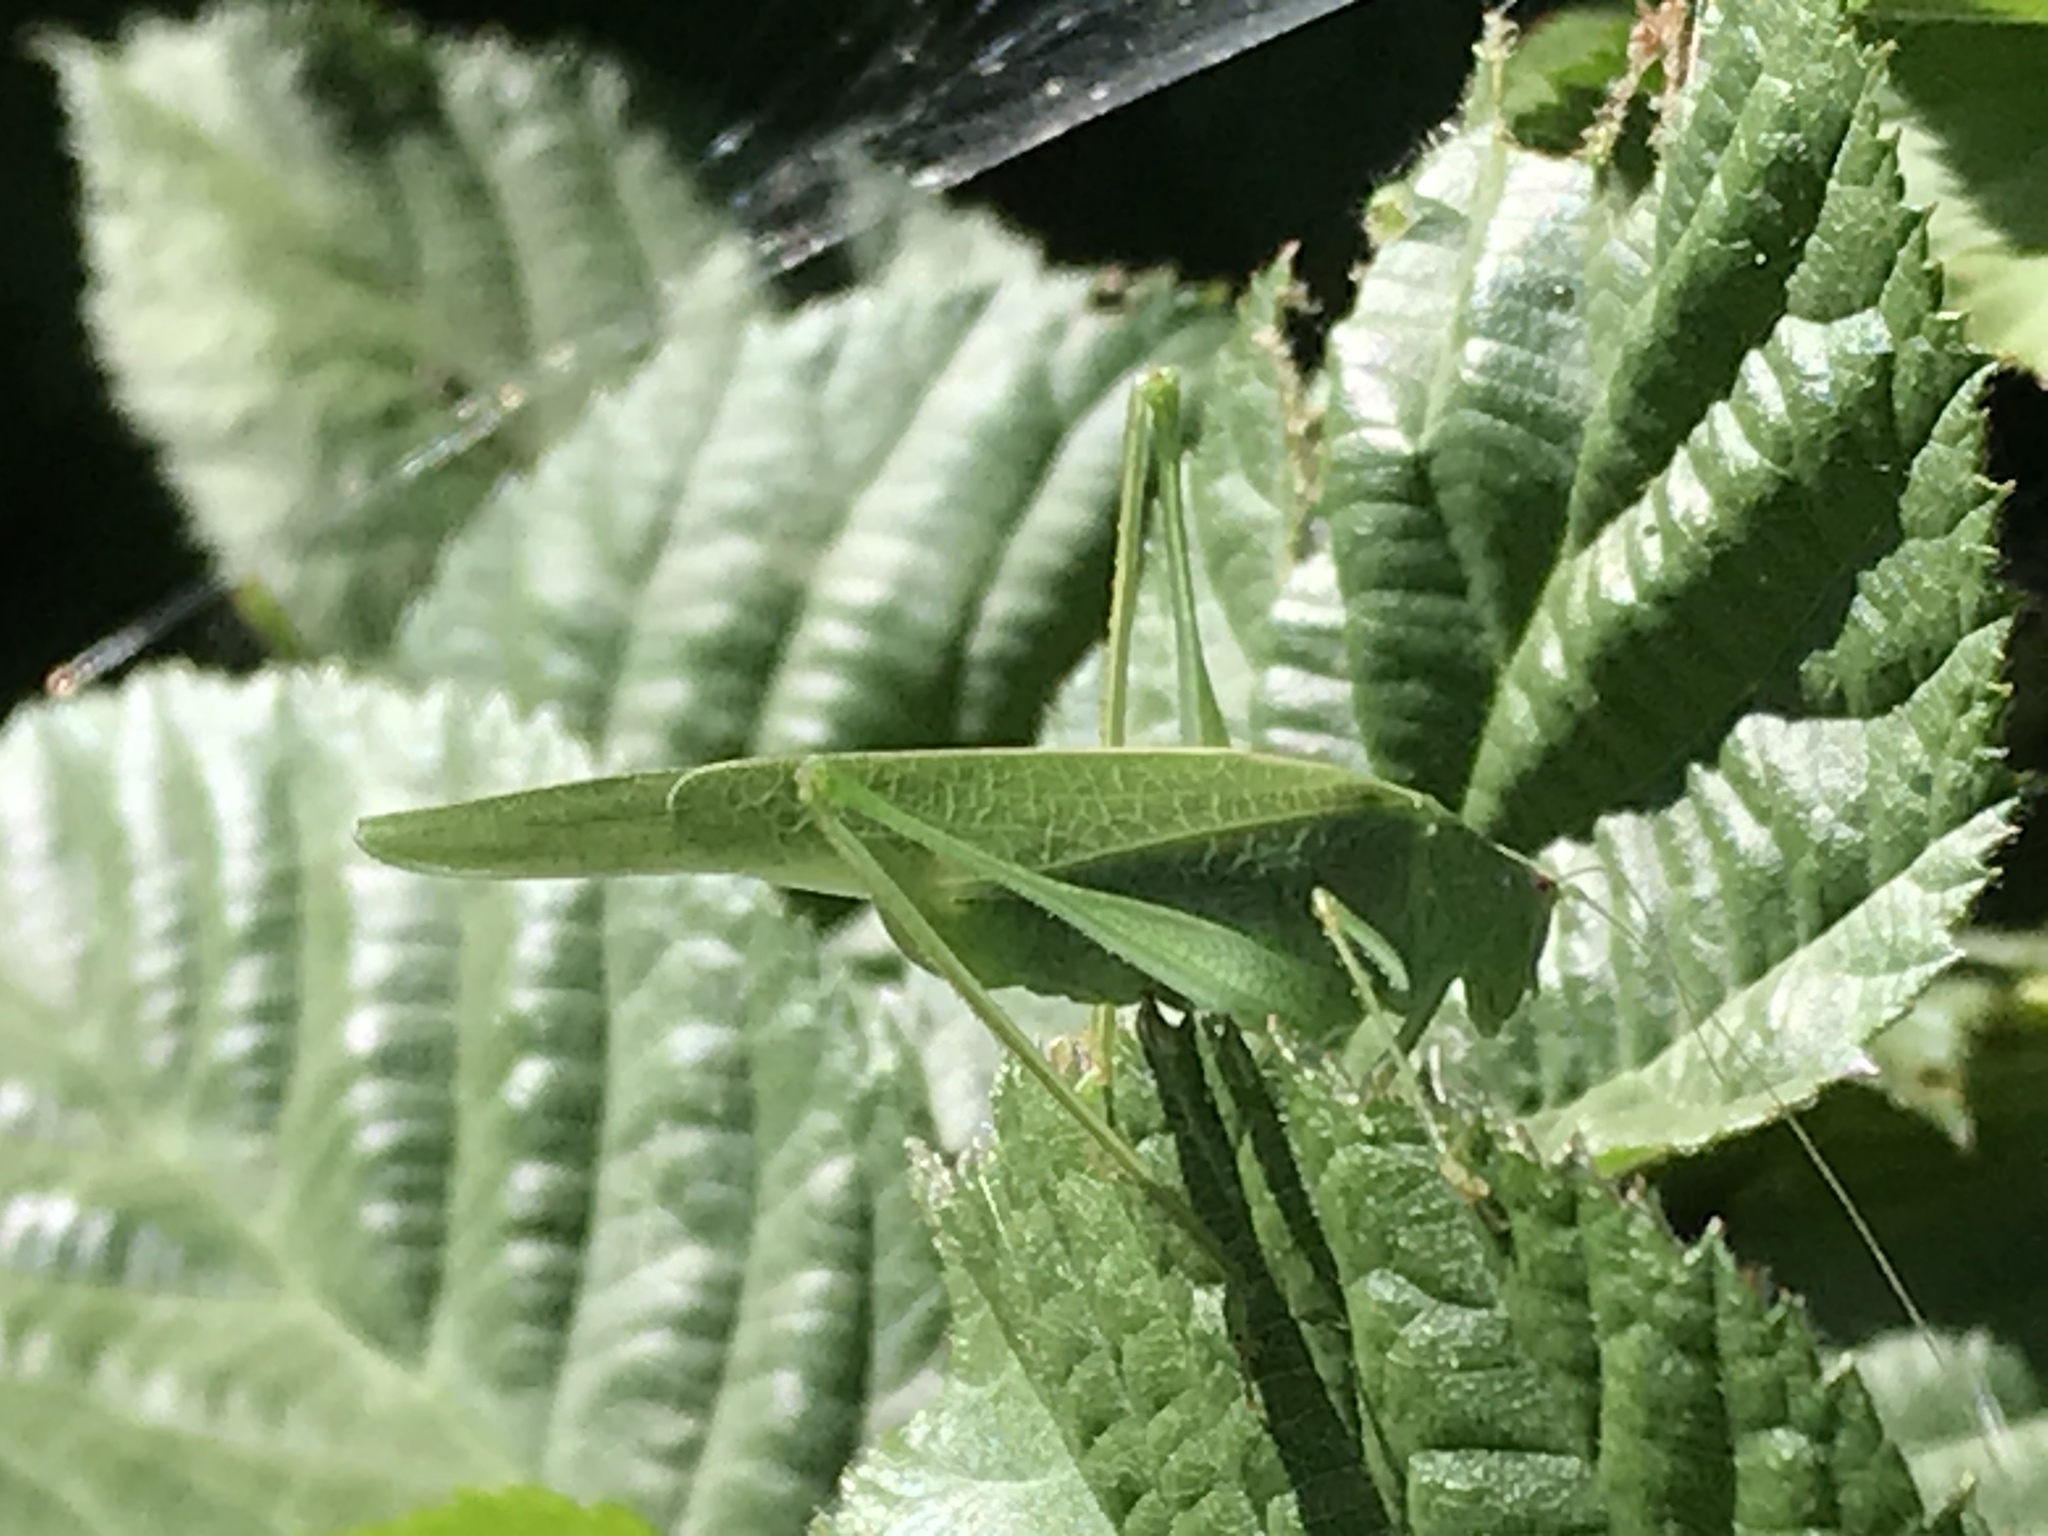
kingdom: Animalia
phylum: Arthropoda
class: Insecta
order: Orthoptera
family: Tettigoniidae
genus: Phaneroptera
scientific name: Phaneroptera nana
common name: Southern sickle bush-cricket
